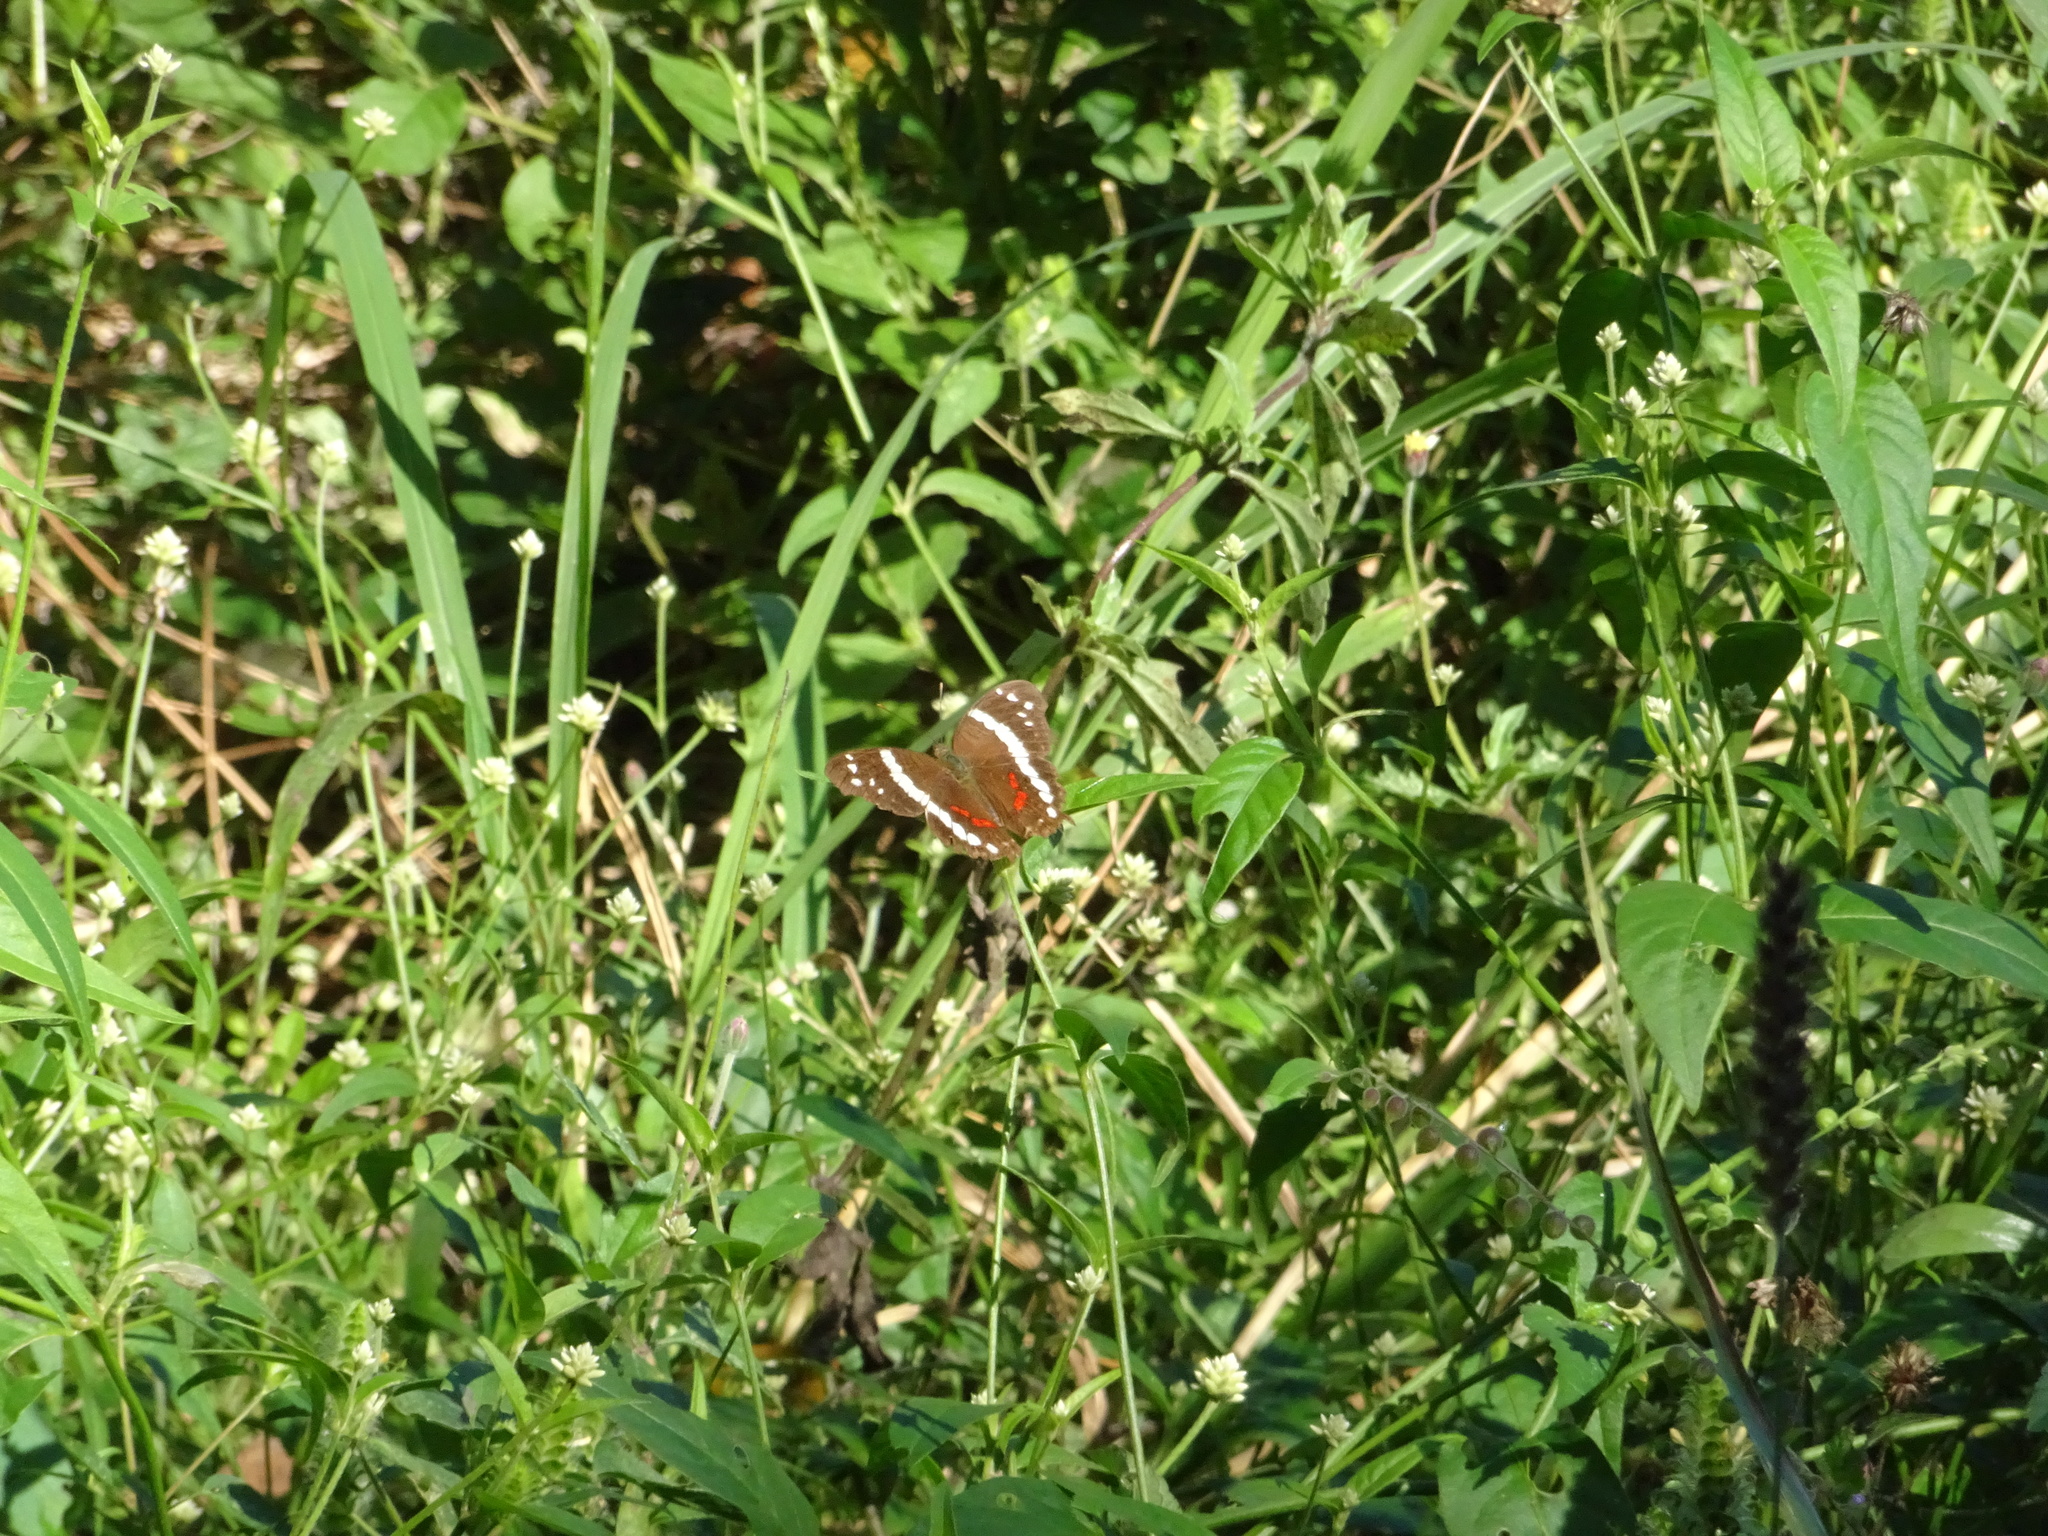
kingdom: Animalia
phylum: Arthropoda
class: Insecta
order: Lepidoptera
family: Nymphalidae
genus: Anartia
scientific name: Anartia fatima
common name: Banded peacock
